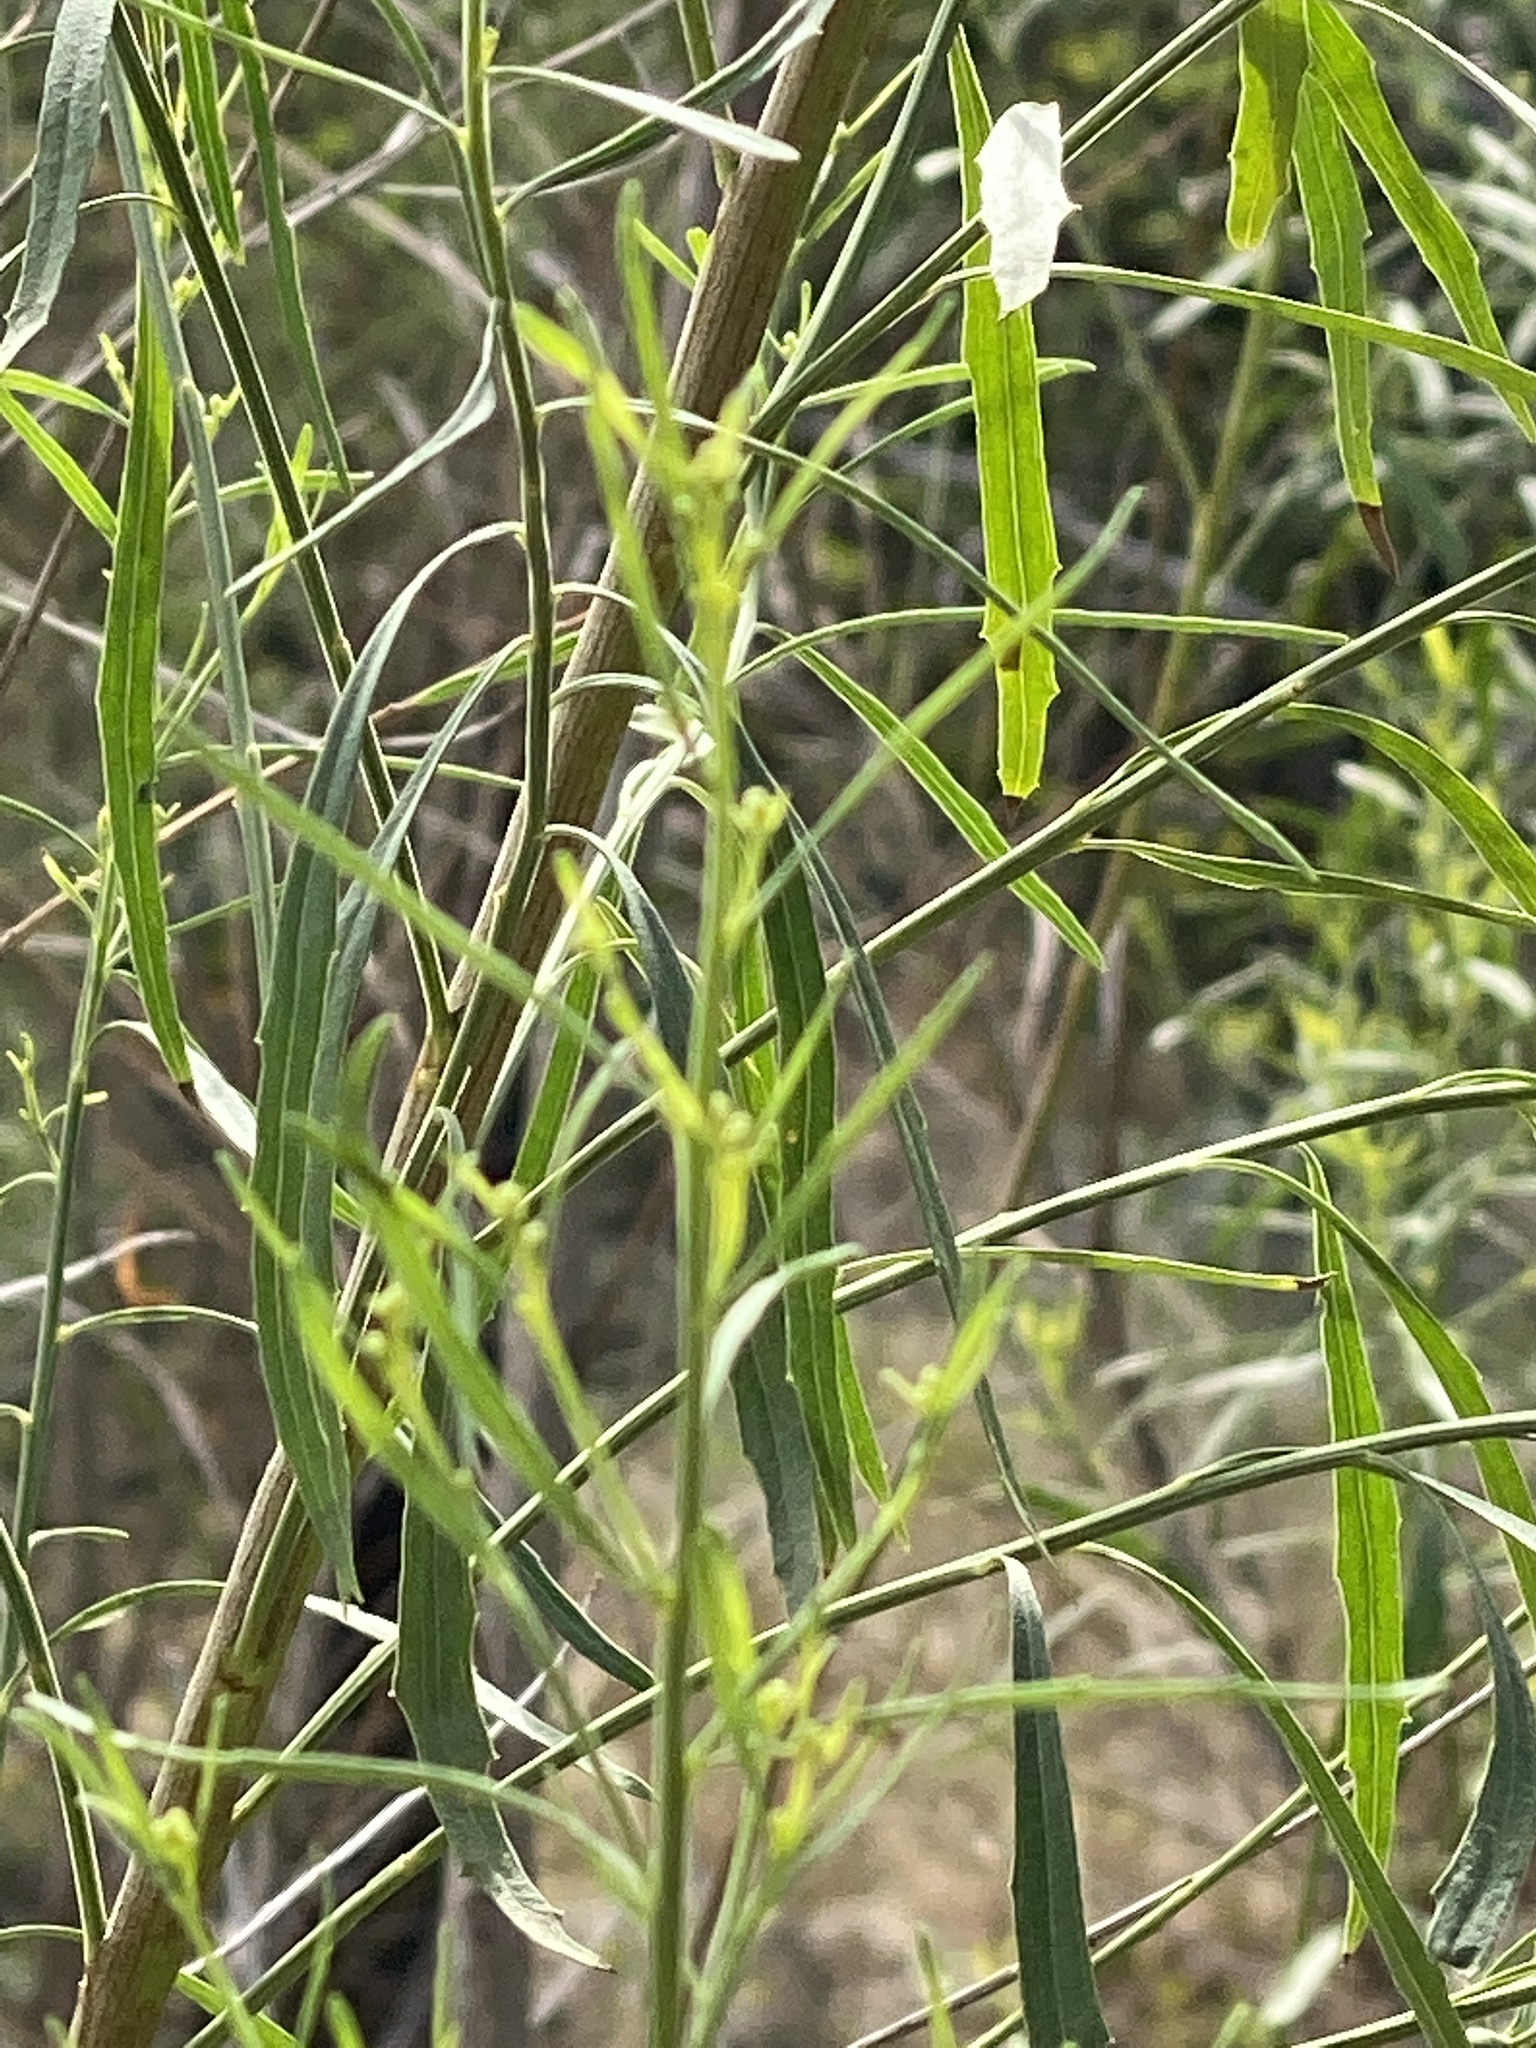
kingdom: Plantae
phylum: Tracheophyta
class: Magnoliopsida
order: Asterales
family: Asteraceae
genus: Baccharis
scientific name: Baccharis neglecta
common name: Roosevelt-weed
